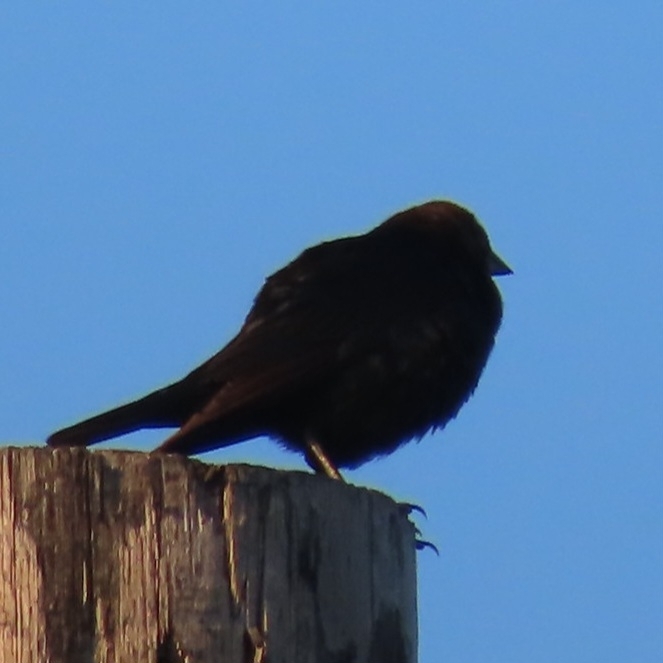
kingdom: Animalia
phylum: Chordata
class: Aves
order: Passeriformes
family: Icteridae
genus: Molothrus
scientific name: Molothrus ater
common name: Brown-headed cowbird
